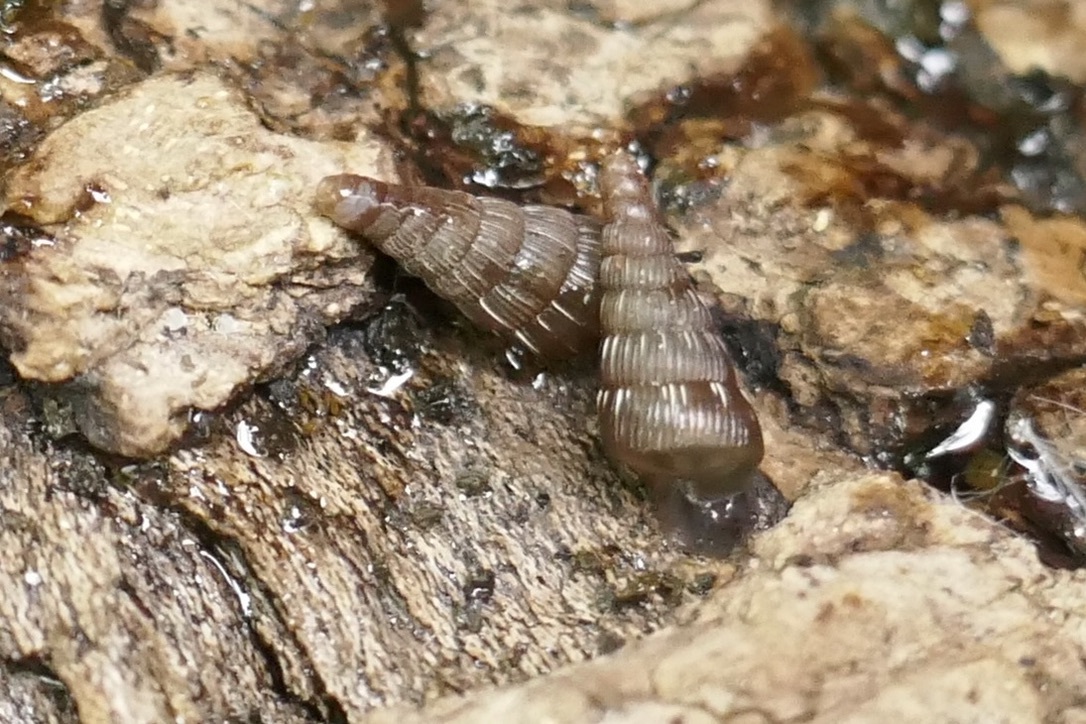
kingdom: Animalia
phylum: Mollusca
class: Gastropoda
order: Stylommatophora
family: Clausiliidae
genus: Alinda
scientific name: Alinda biplicata
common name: Thames door snail
